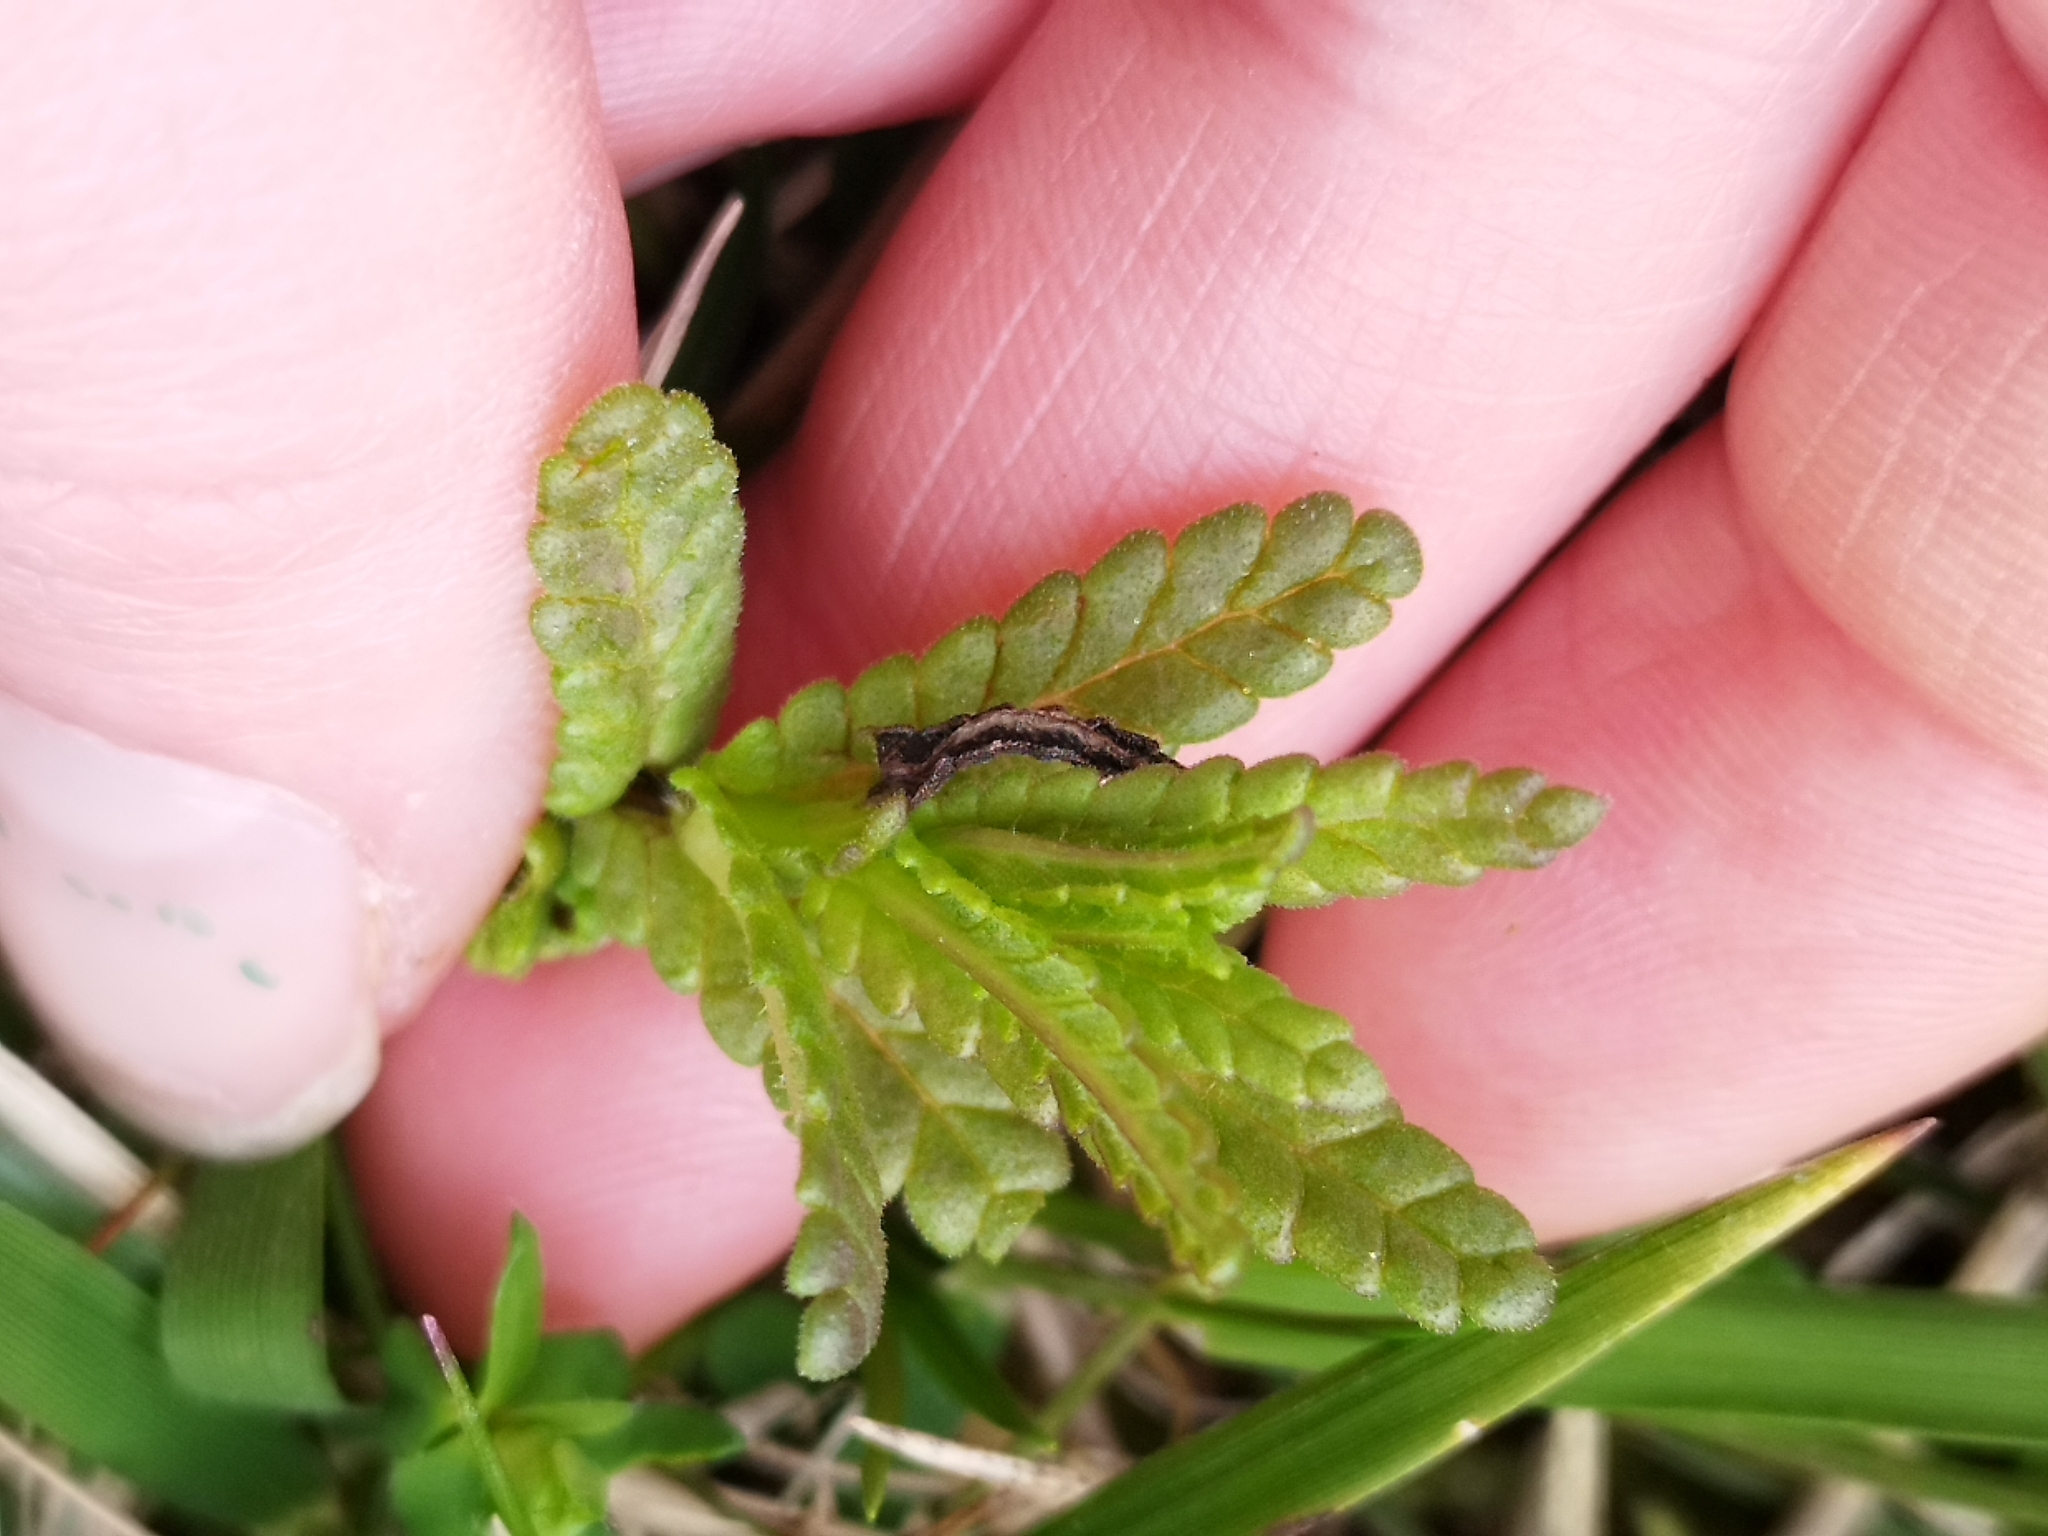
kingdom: Plantae
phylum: Tracheophyta
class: Magnoliopsida
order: Lamiales
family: Orobanchaceae
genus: Rhinanthus
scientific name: Rhinanthus minor
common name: Yellow-rattle
